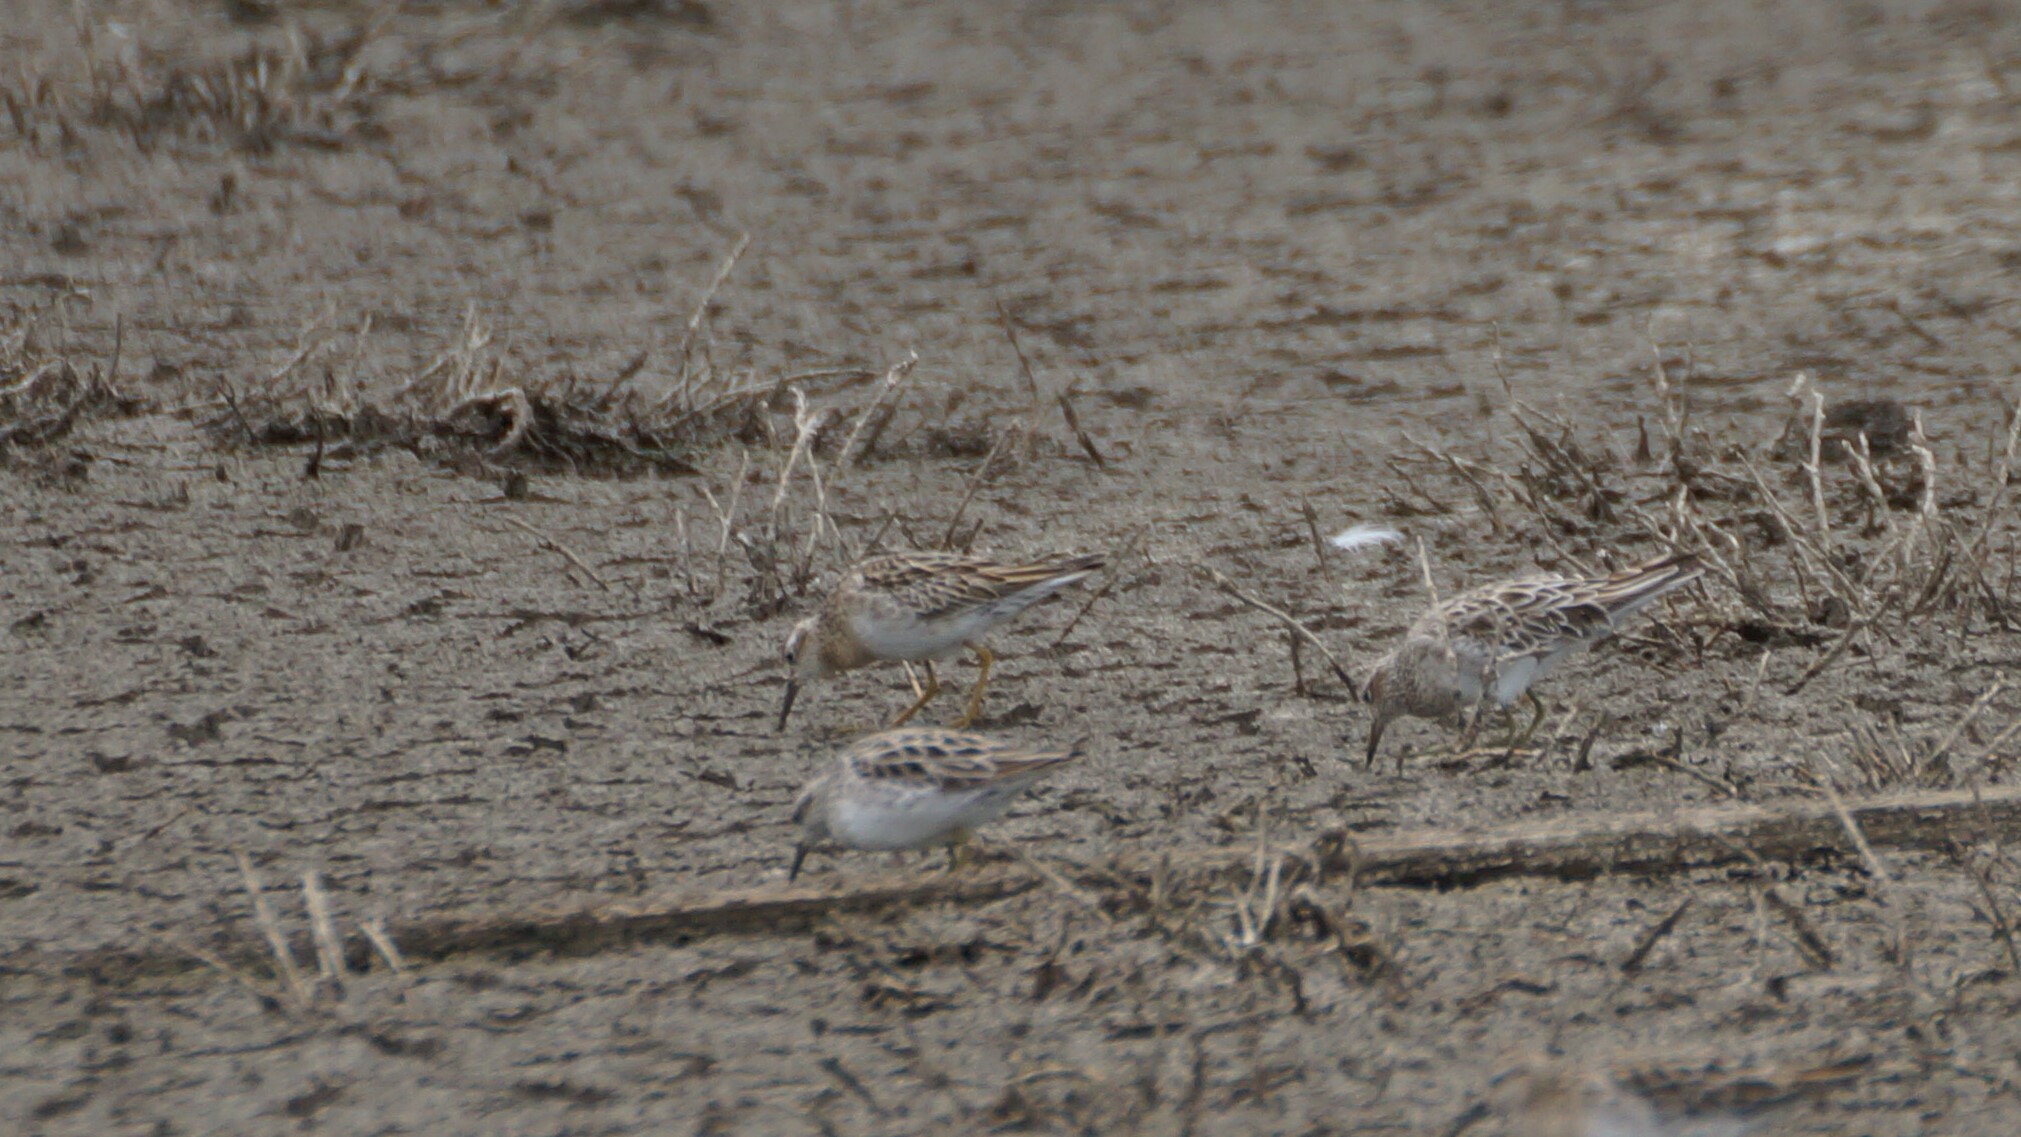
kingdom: Animalia
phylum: Chordata
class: Aves
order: Charadriiformes
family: Scolopacidae
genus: Calidris
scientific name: Calidris acuminata
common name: Sharp-tailed sandpiper
